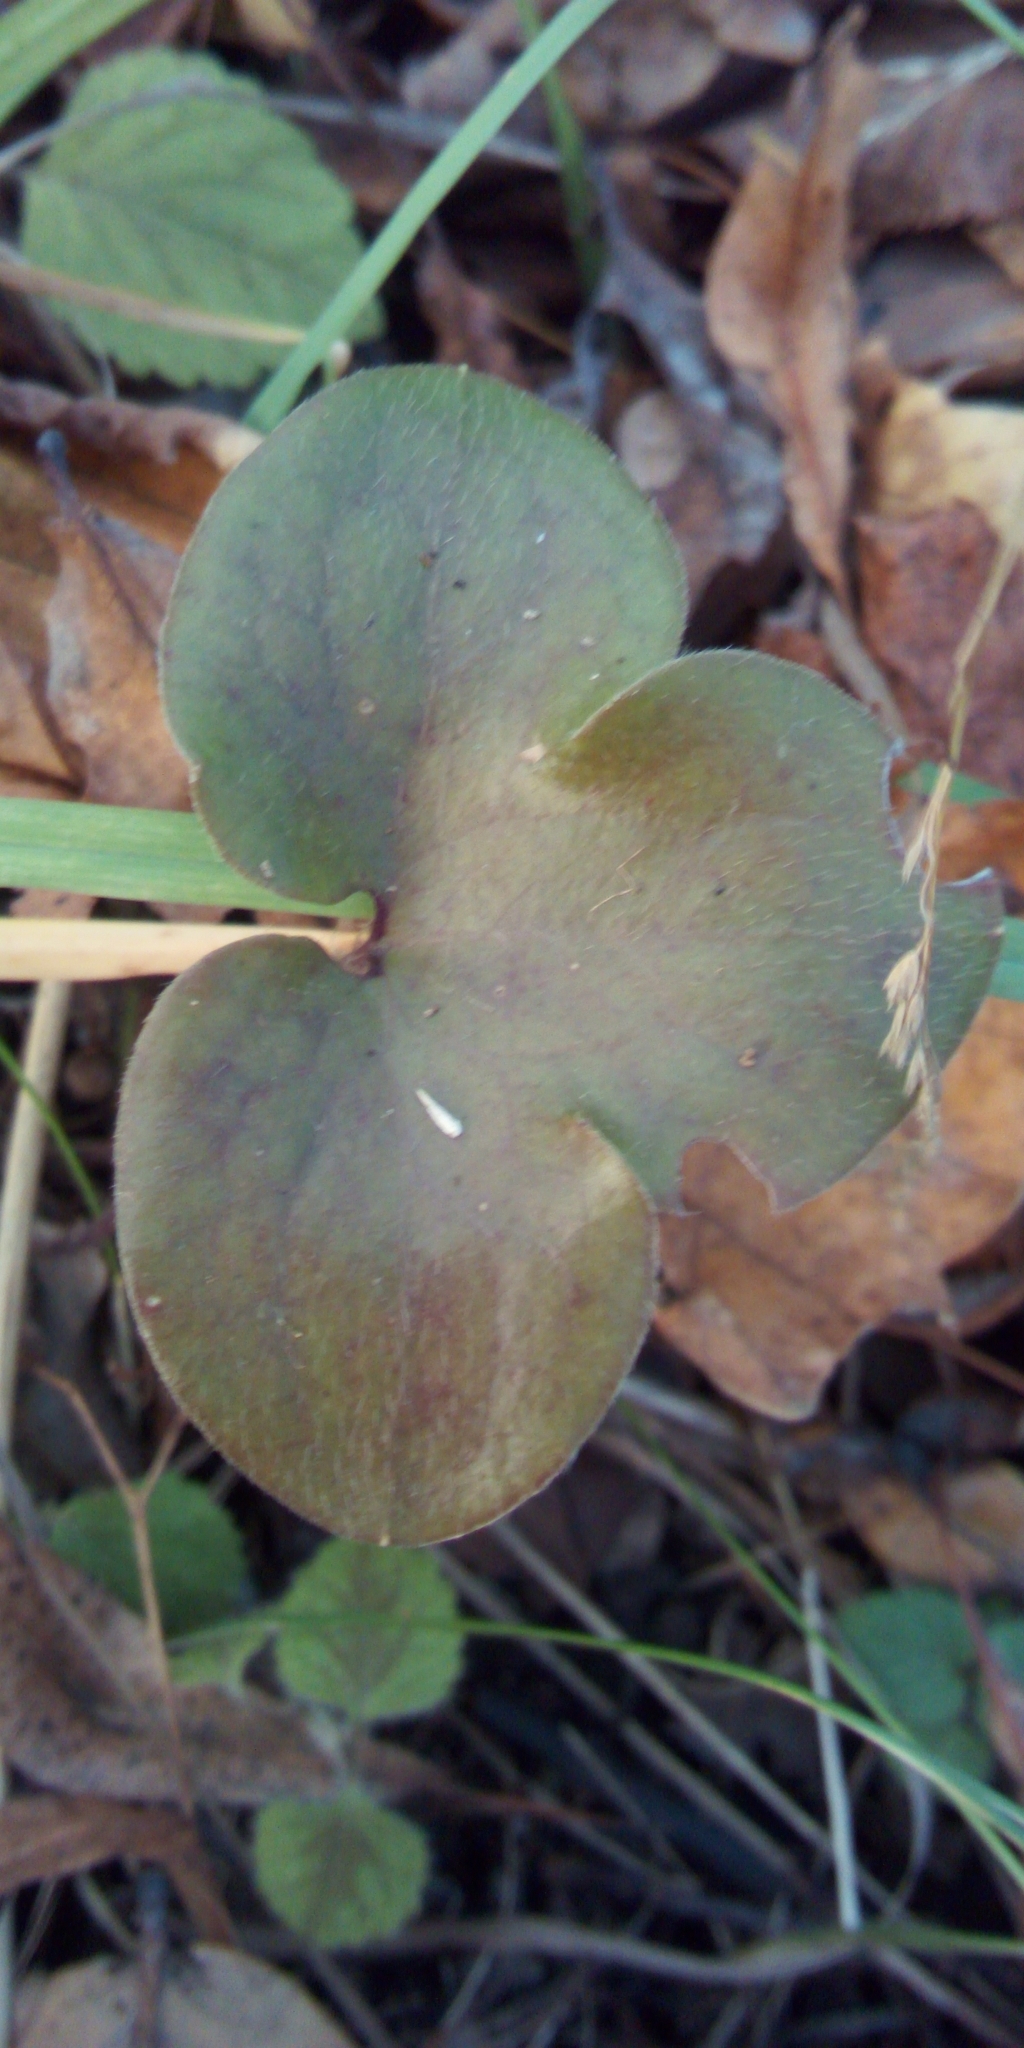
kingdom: Plantae
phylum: Tracheophyta
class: Magnoliopsida
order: Ranunculales
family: Ranunculaceae
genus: Hepatica
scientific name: Hepatica nobilis
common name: Liverleaf
